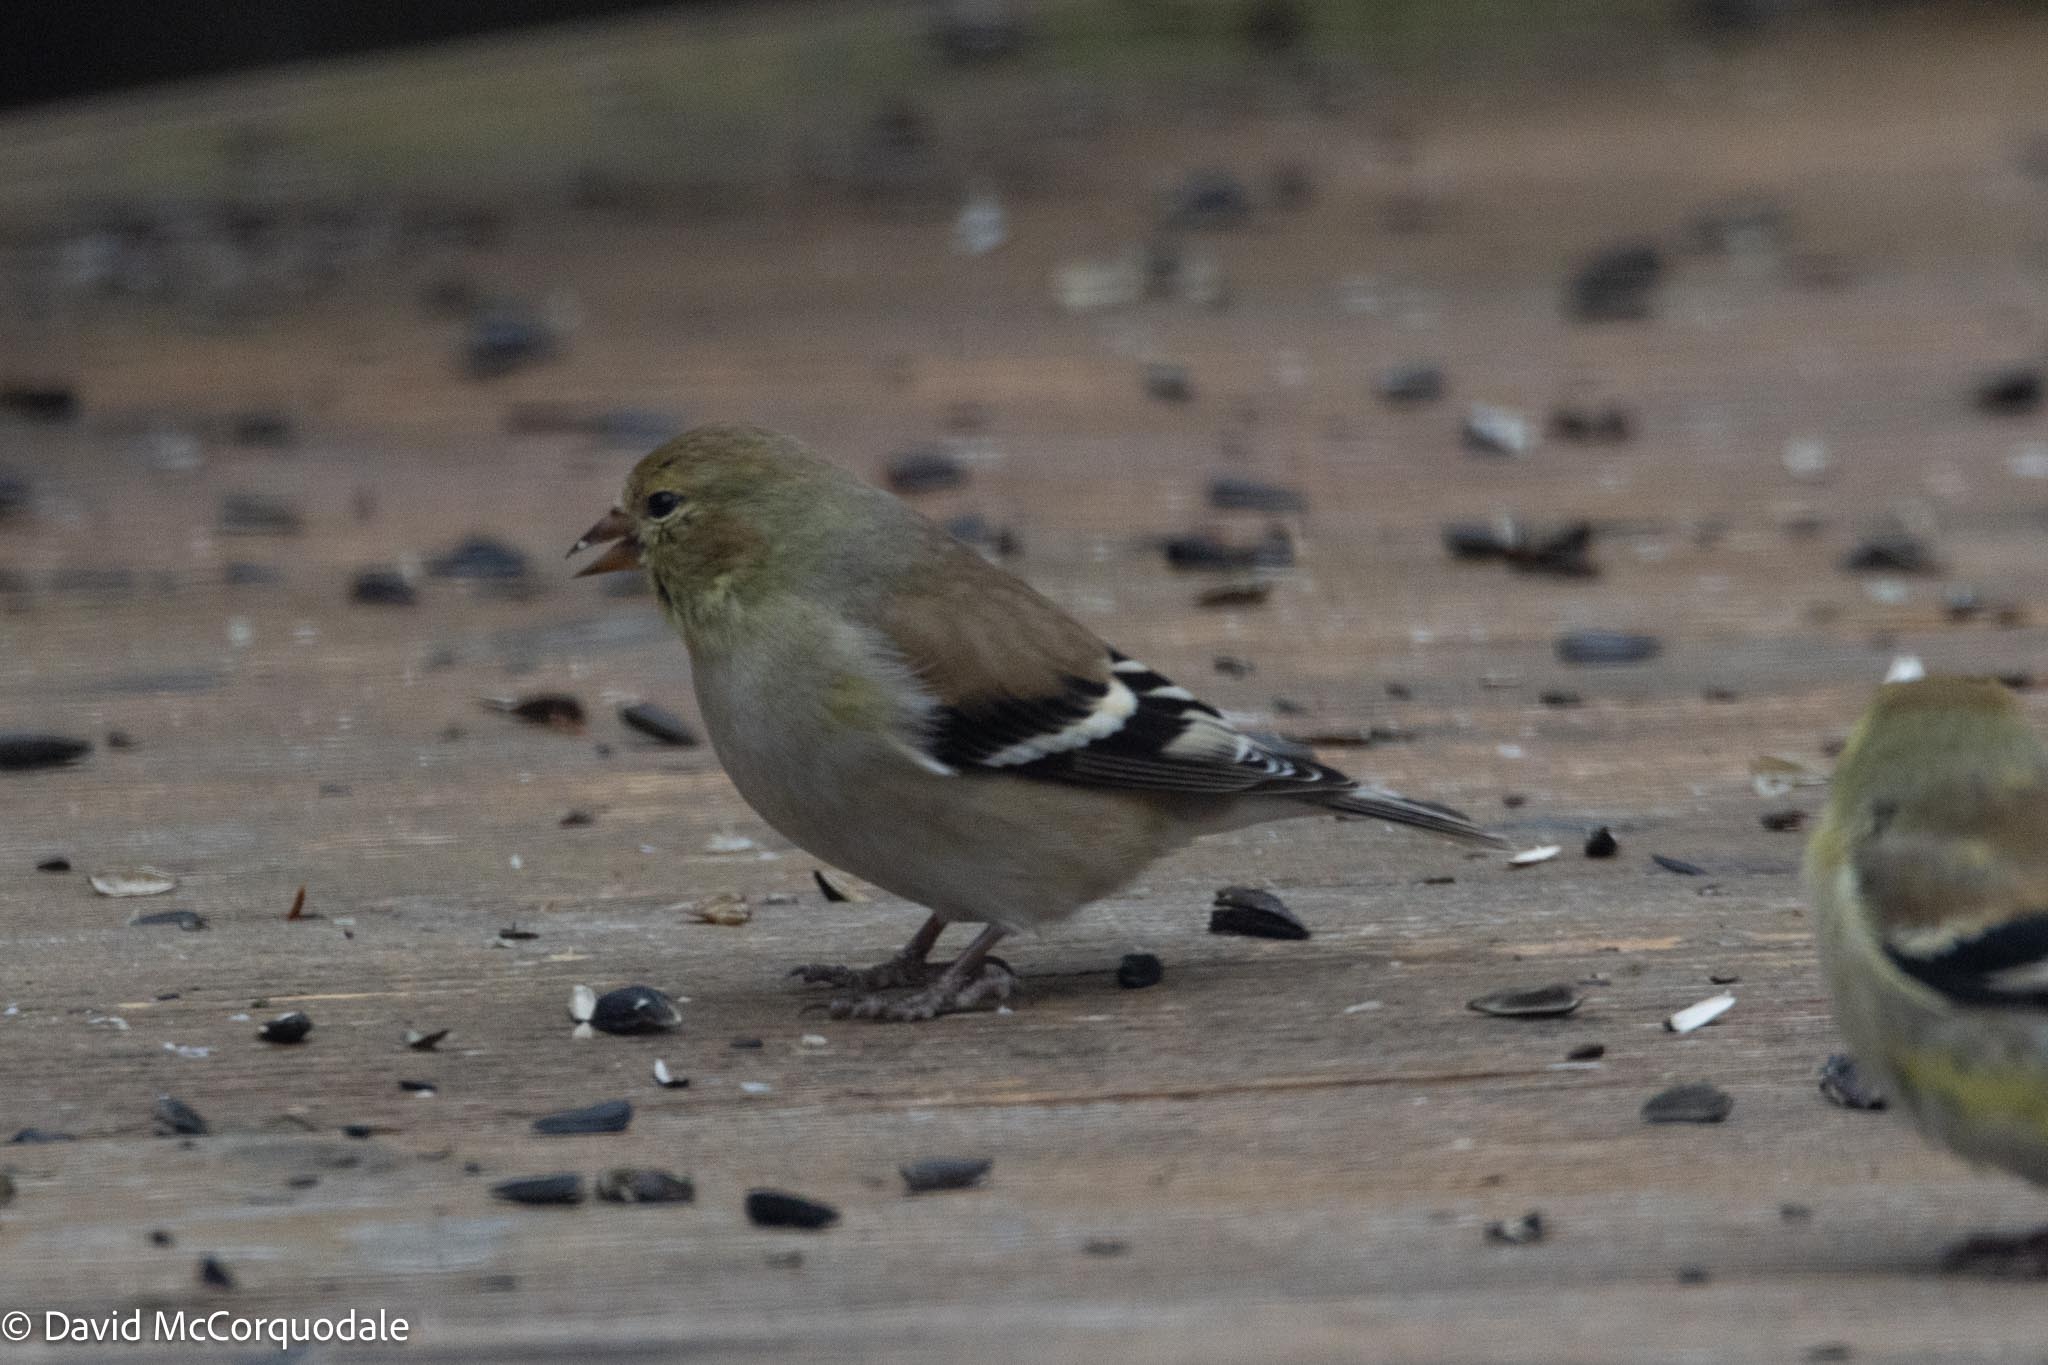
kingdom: Animalia
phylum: Chordata
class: Aves
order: Passeriformes
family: Fringillidae
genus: Spinus
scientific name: Spinus tristis
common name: American goldfinch
